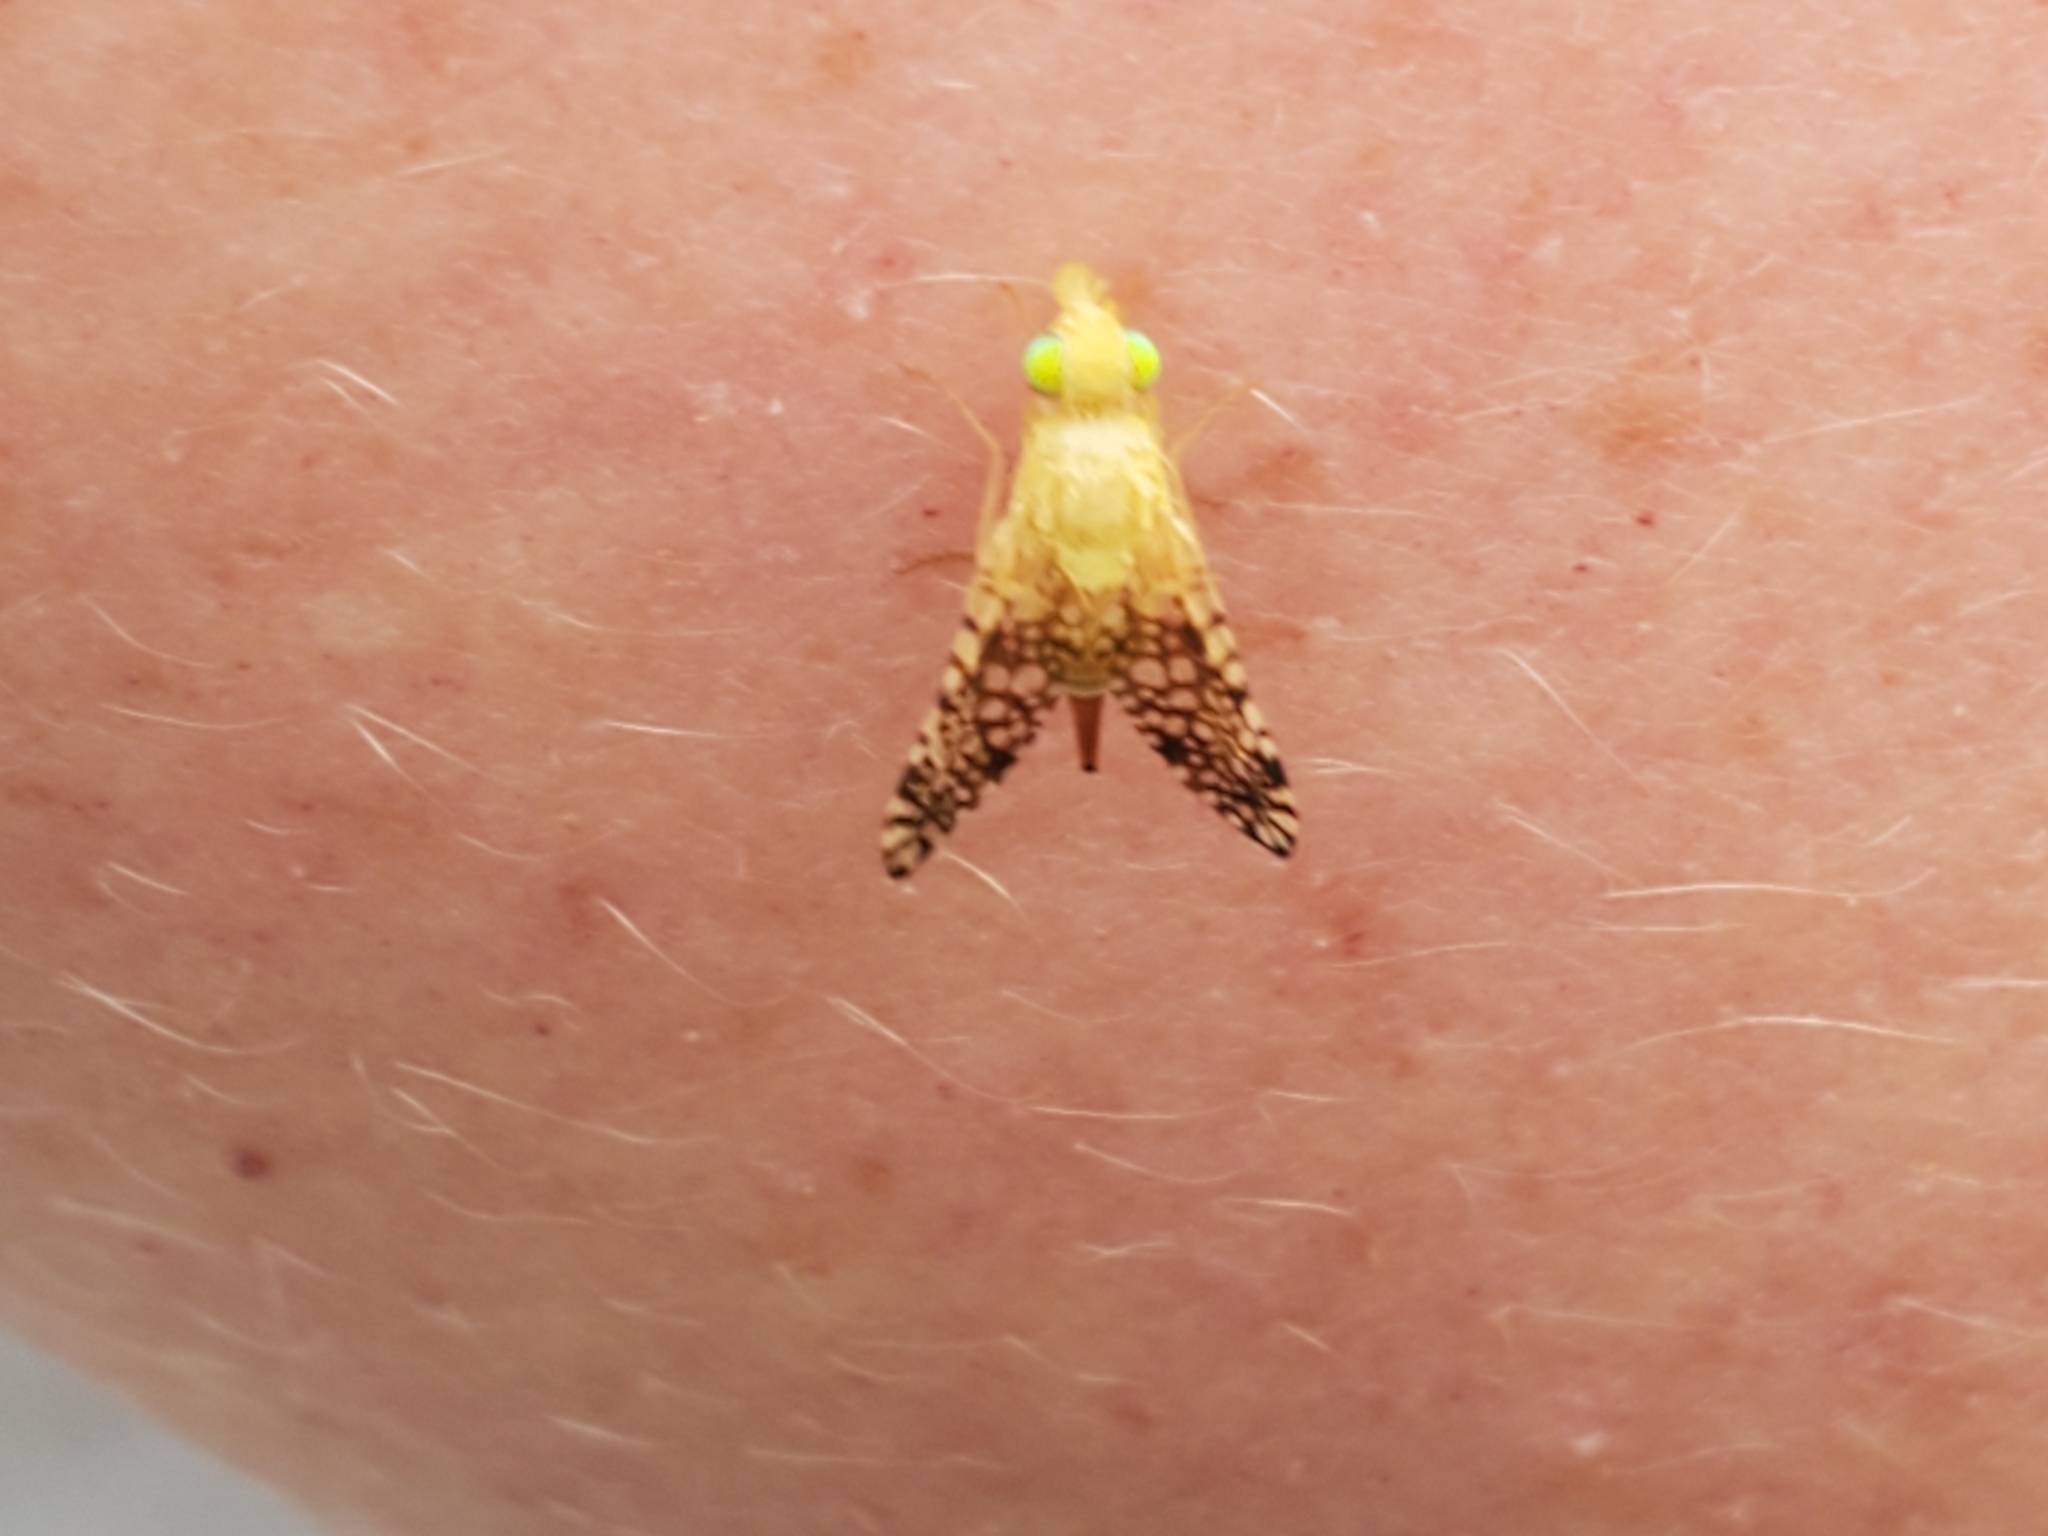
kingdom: Animalia
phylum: Arthropoda
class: Insecta
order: Diptera
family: Tephritidae
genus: Euaresta
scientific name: Euaresta aequalis
